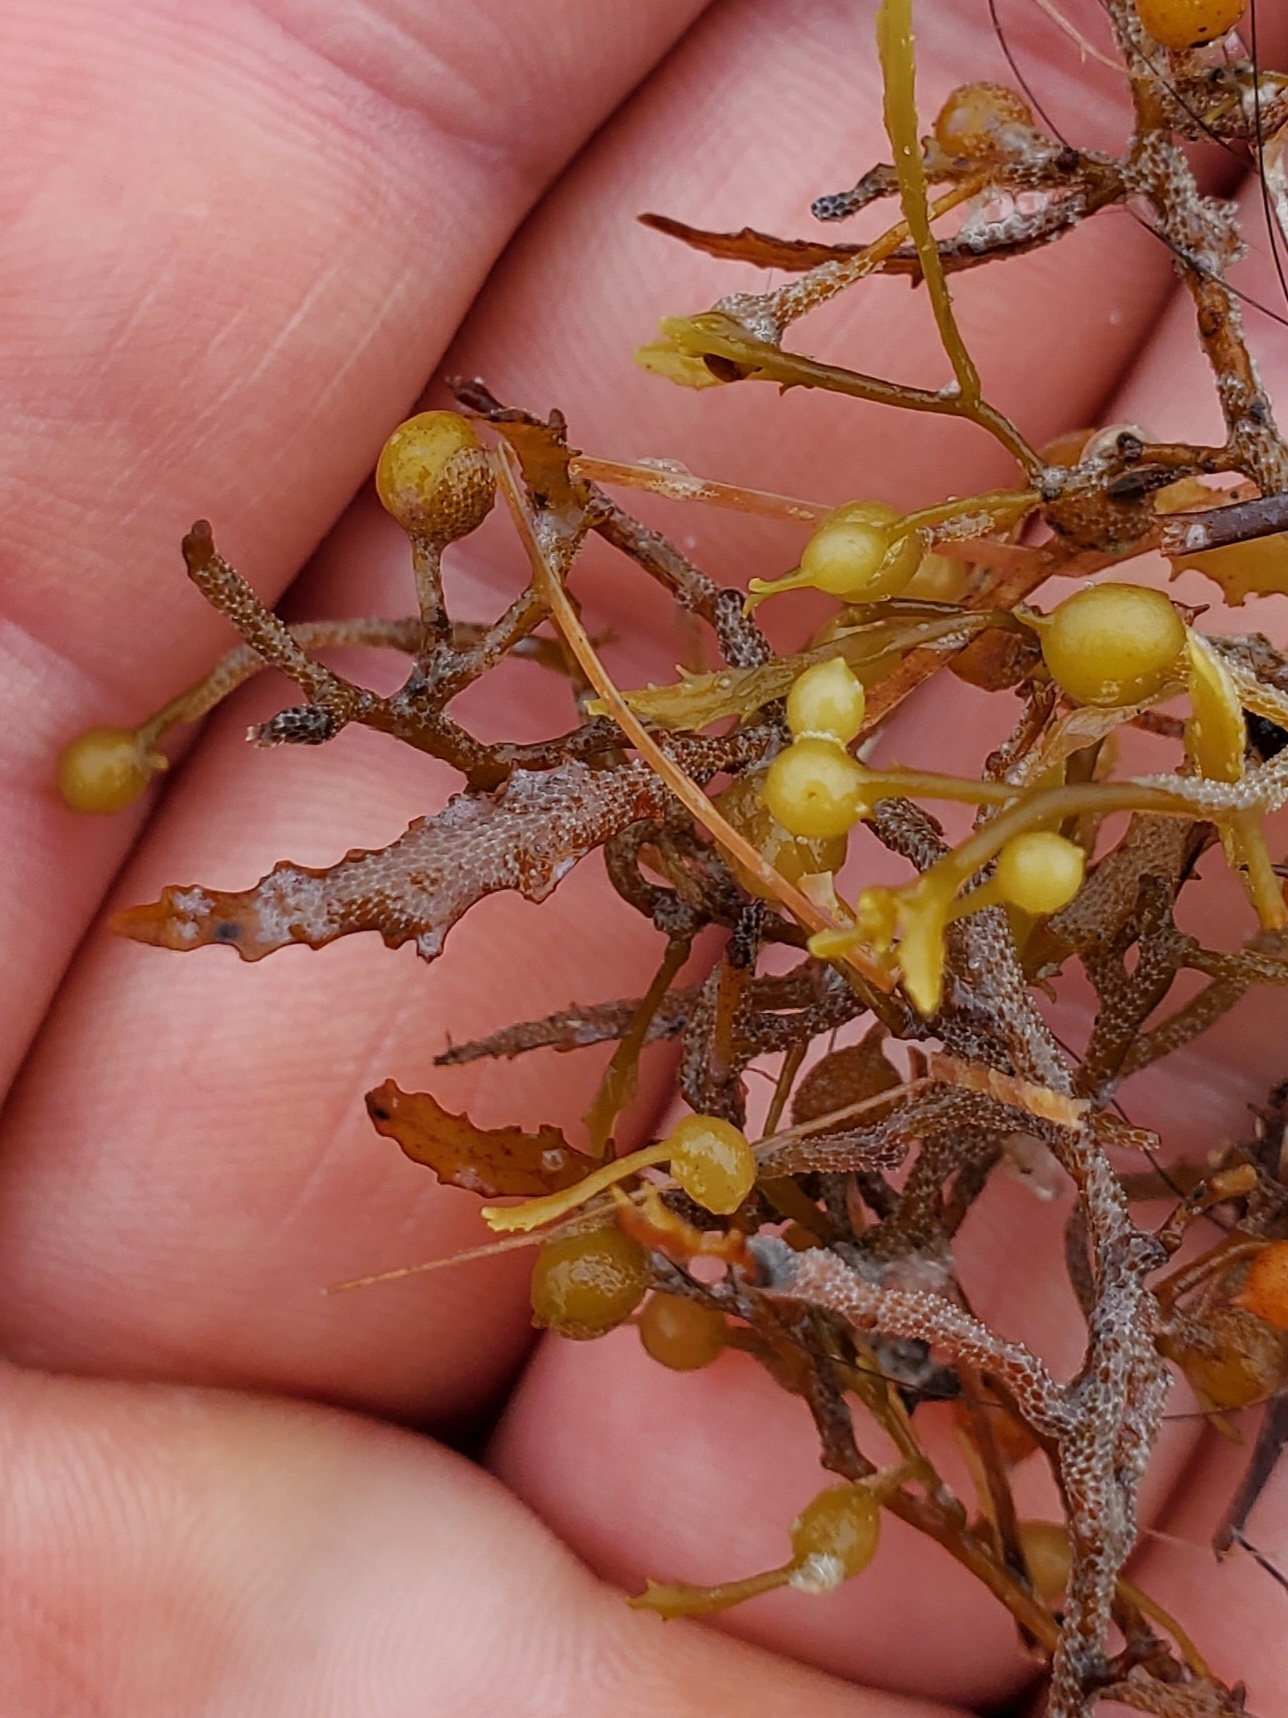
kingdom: Chromista
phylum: Ochrophyta
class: Phaeophyceae
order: Fucales
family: Sargassaceae
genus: Sargassum
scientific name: Sargassum fluitans
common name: Sargassum seaweed
